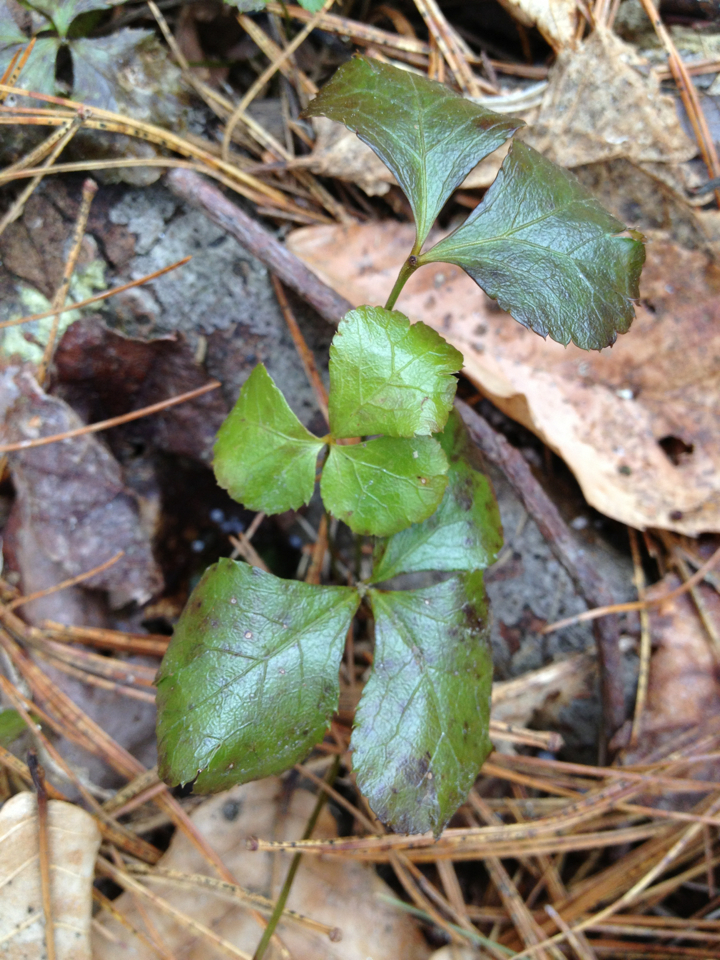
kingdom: Plantae
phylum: Tracheophyta
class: Magnoliopsida
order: Ranunculales
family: Ranunculaceae
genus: Coptis
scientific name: Coptis trifolia
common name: Canker-root
